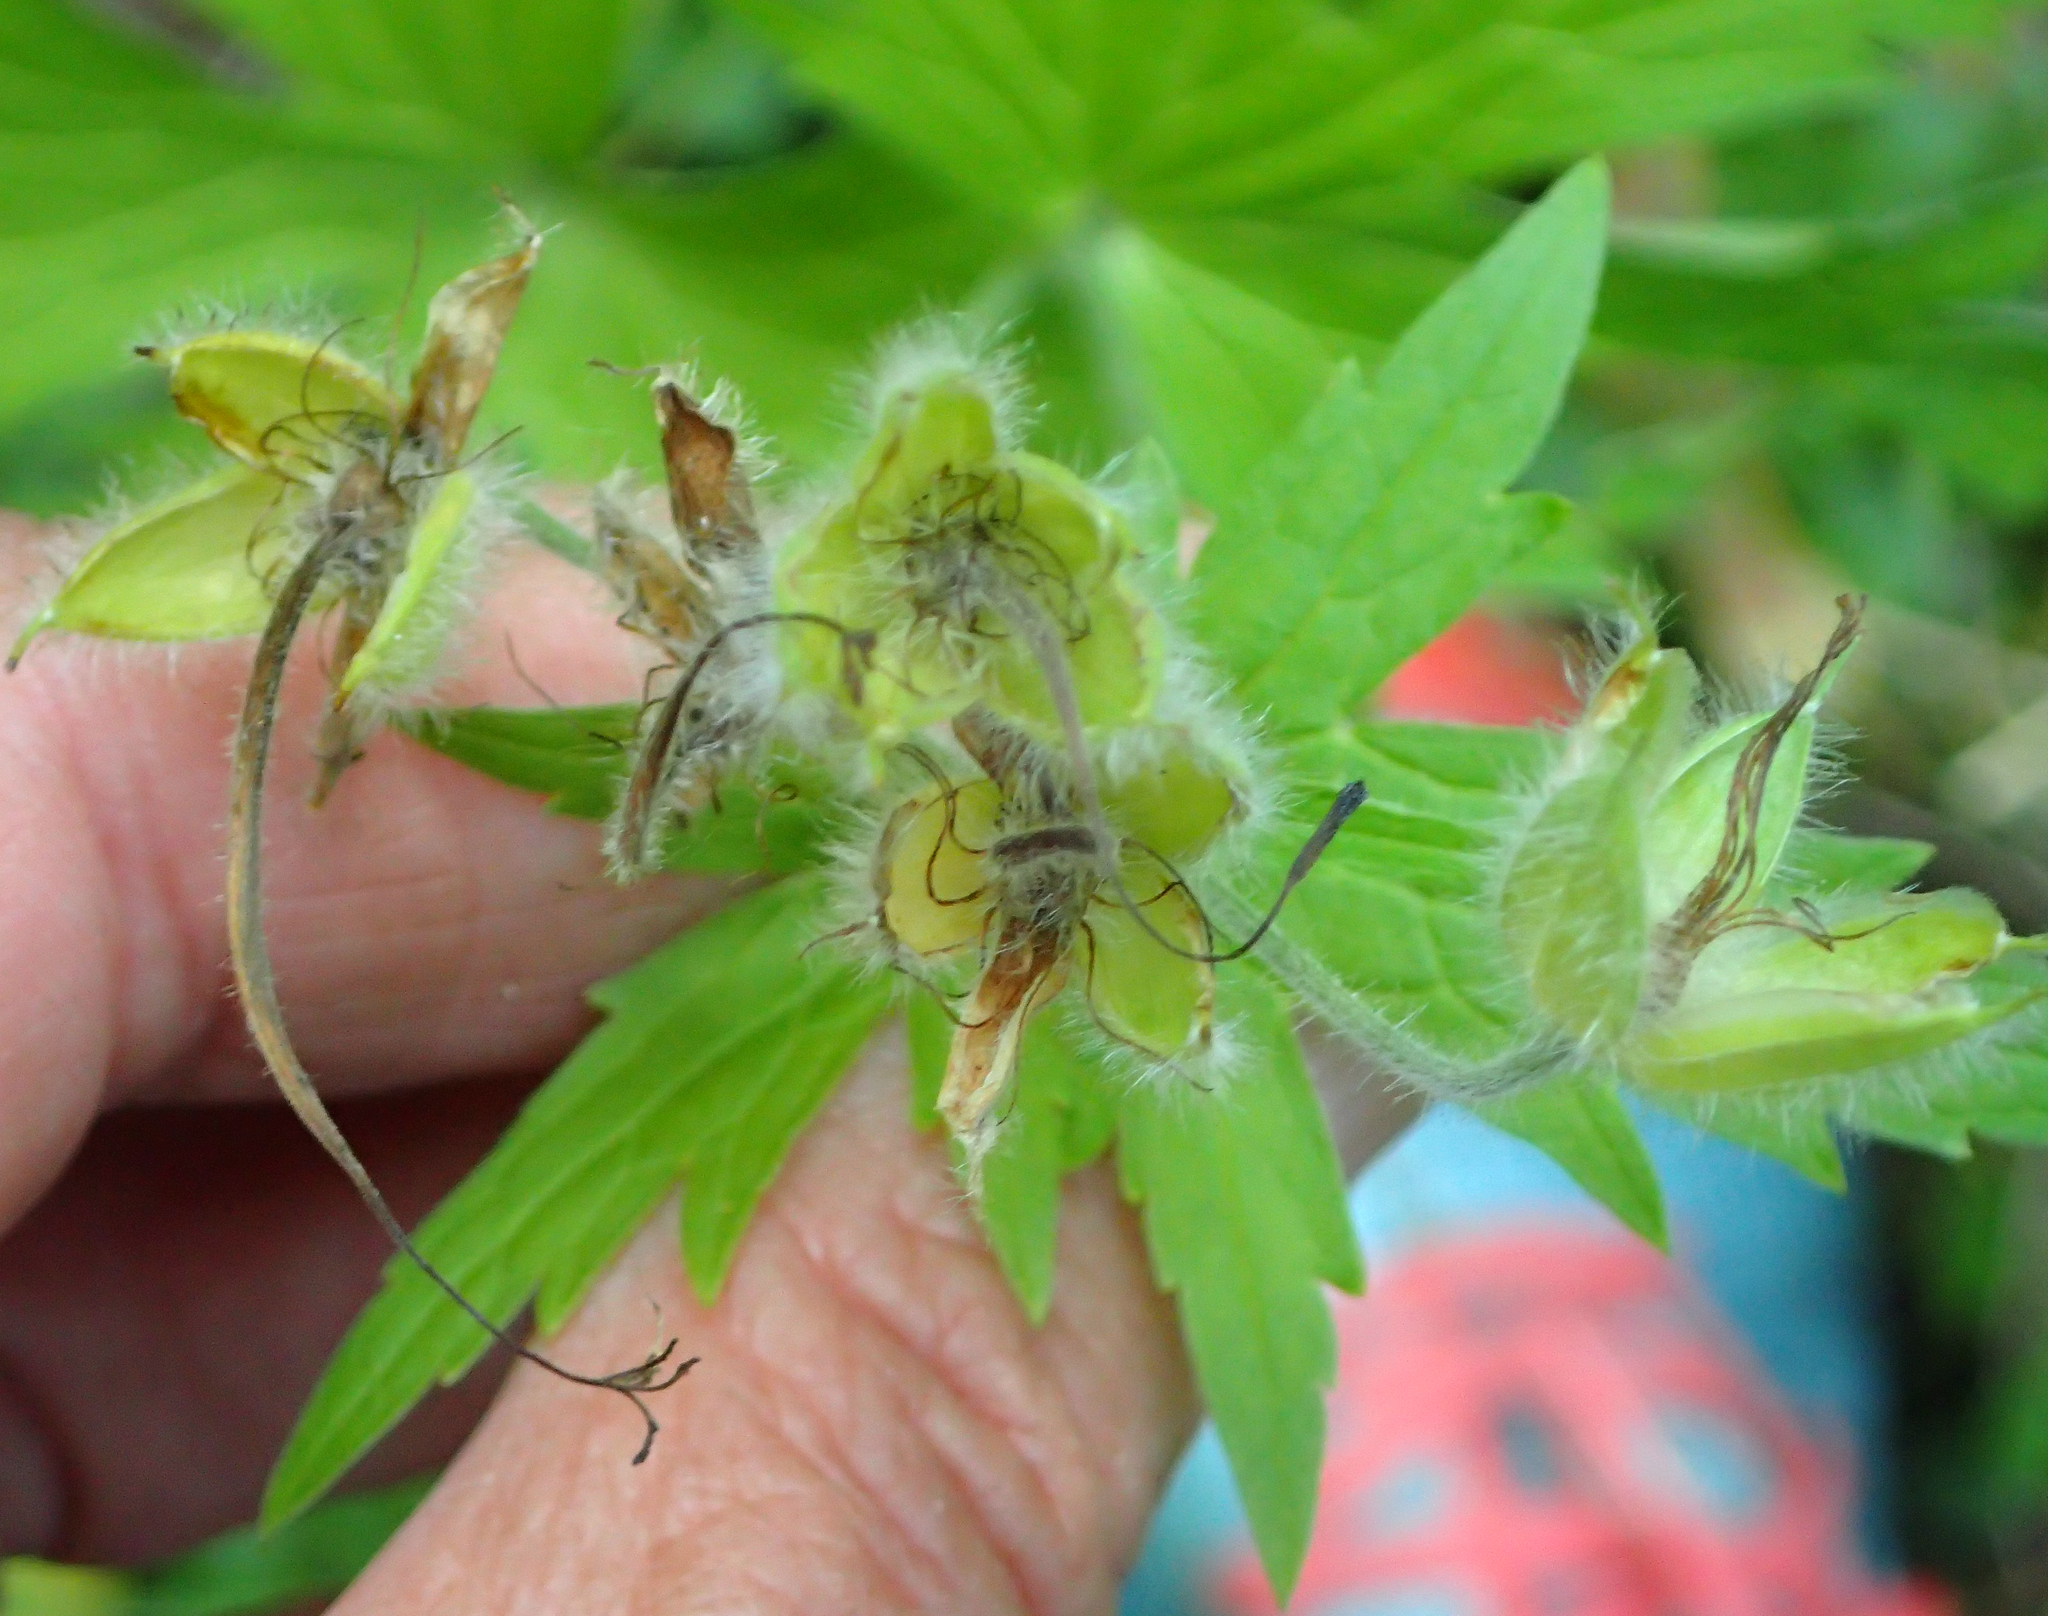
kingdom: Plantae
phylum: Tracheophyta
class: Magnoliopsida
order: Geraniales
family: Geraniaceae
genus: Geranium
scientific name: Geranium erianthum
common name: Northern crane's-bill
